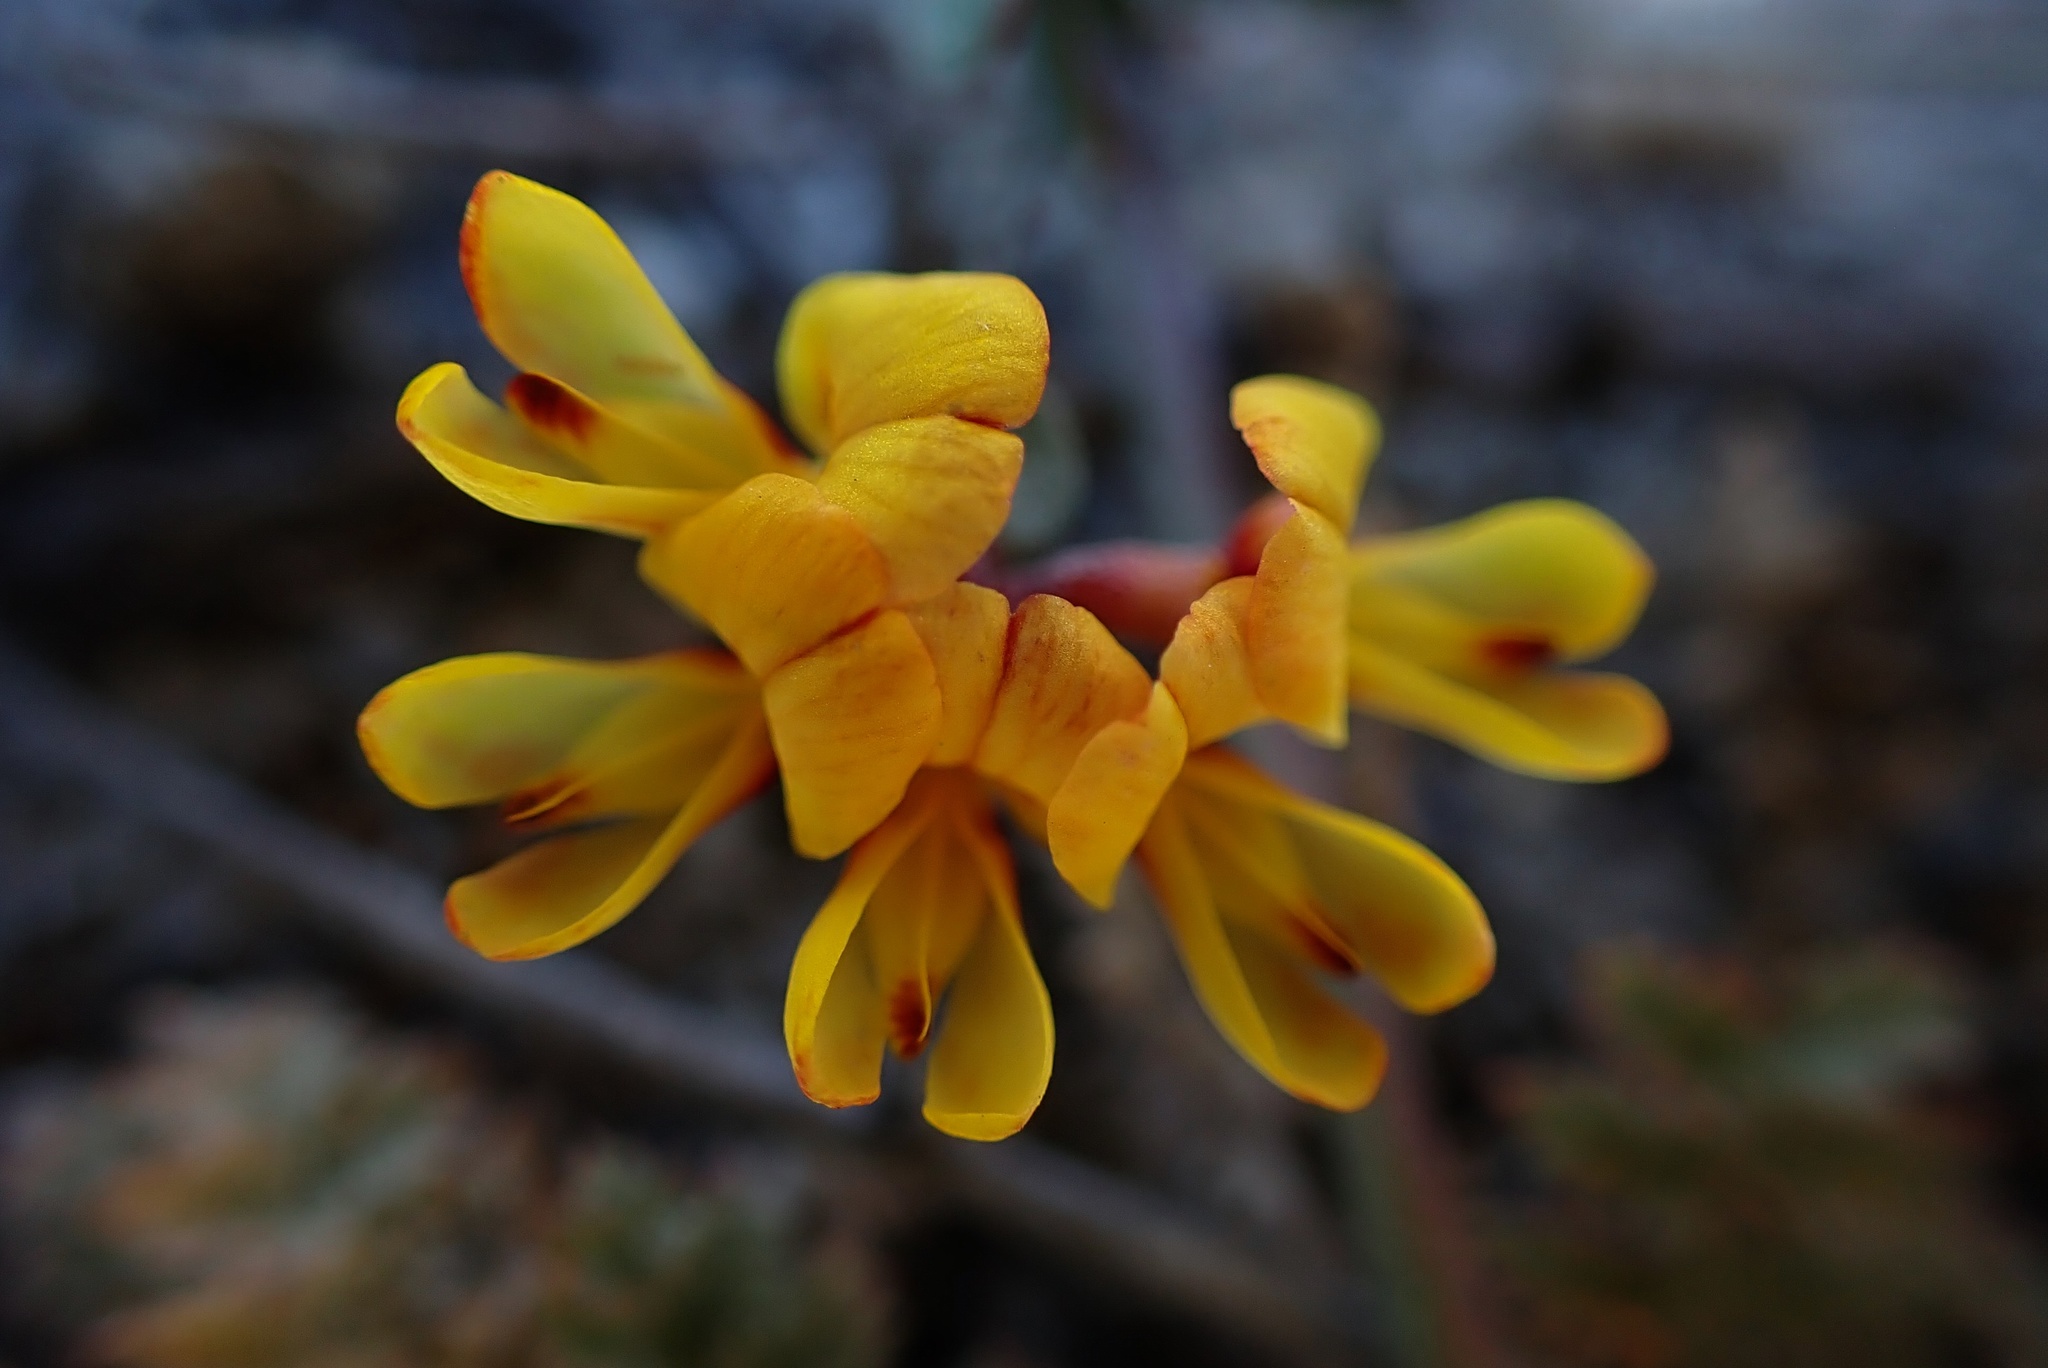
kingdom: Plantae
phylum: Tracheophyta
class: Magnoliopsida
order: Fabales
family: Fabaceae
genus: Acmispon
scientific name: Acmispon prostratus
